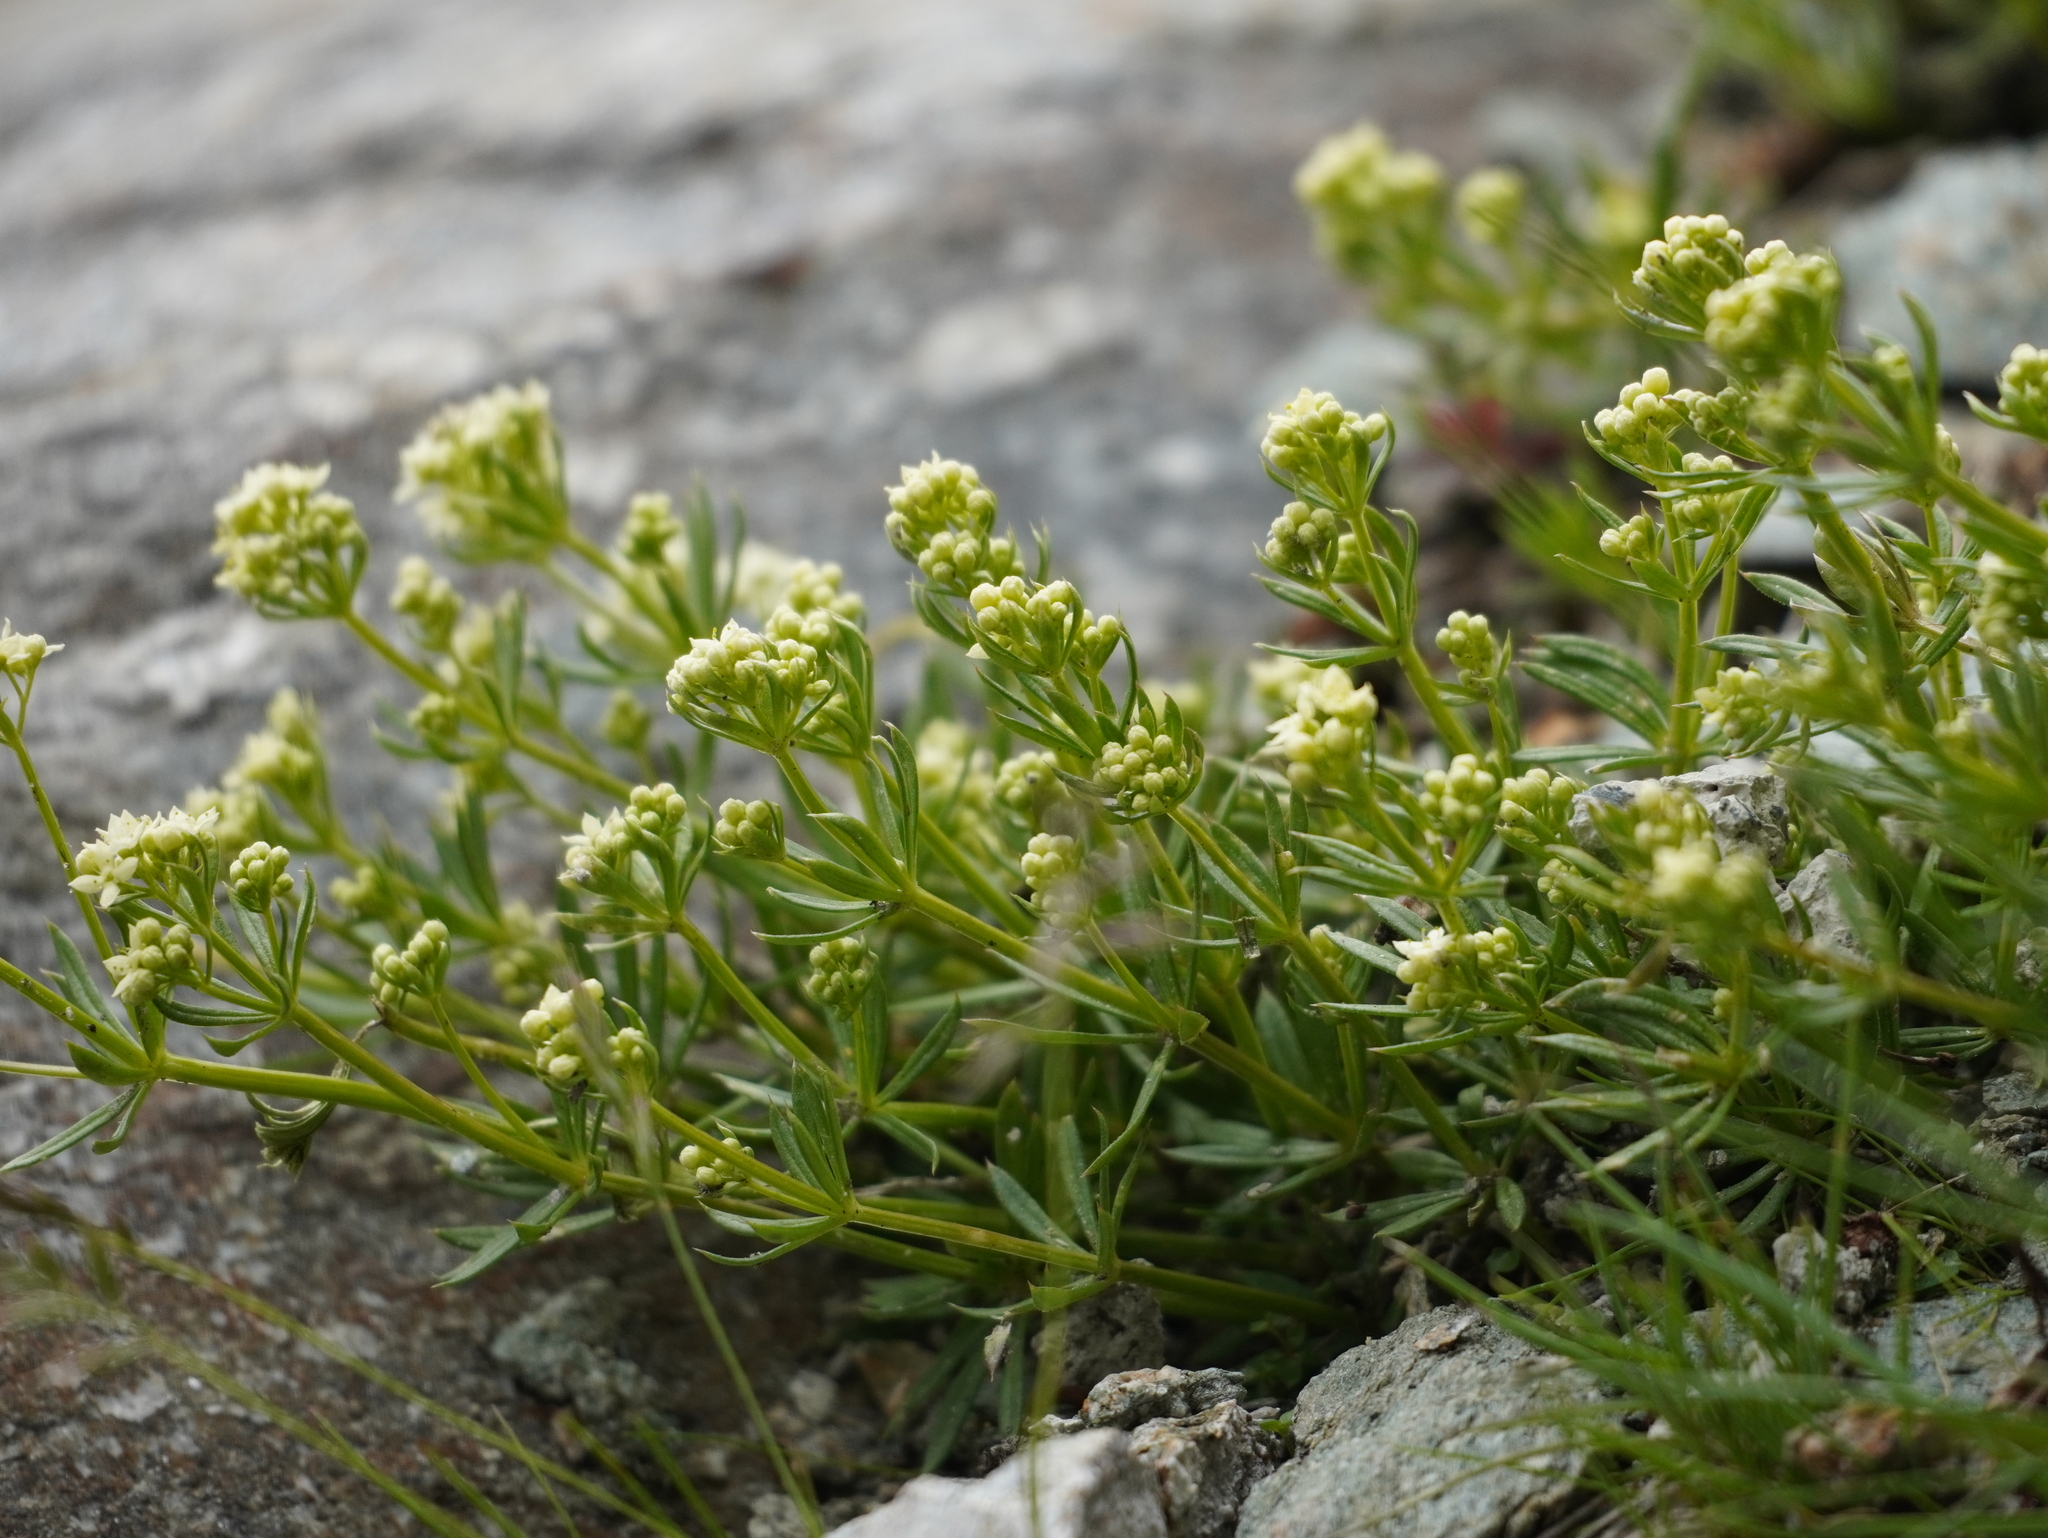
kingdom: Plantae
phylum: Tracheophyta
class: Magnoliopsida
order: Gentianales
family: Rubiaceae
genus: Galium
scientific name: Galium anisophyllon
